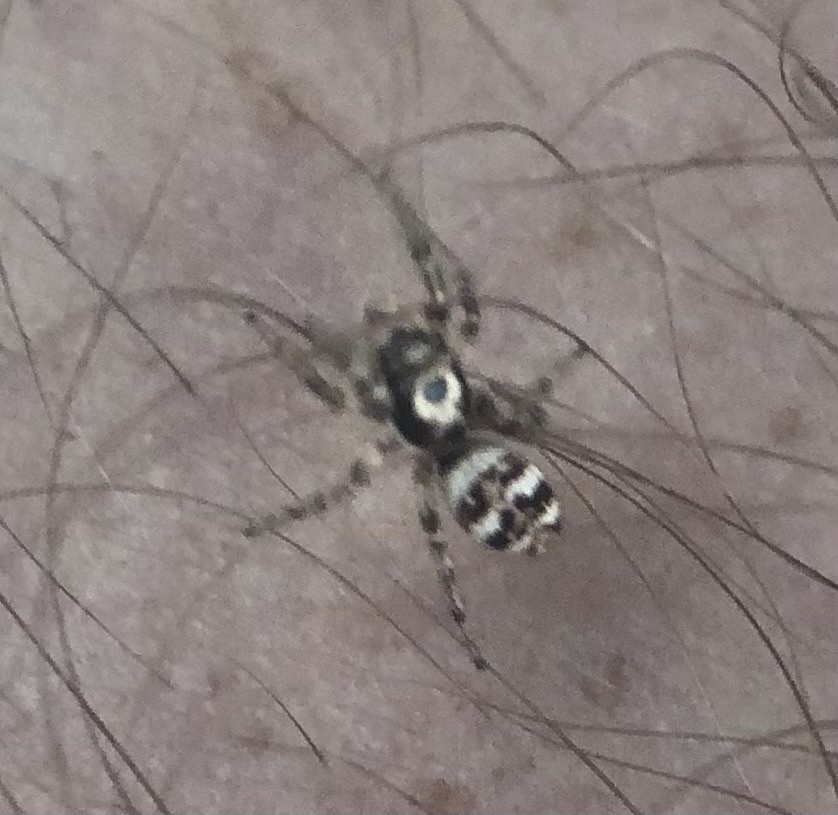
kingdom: Animalia
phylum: Arthropoda
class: Arachnida
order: Araneae
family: Salticidae
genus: Salticus
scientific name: Salticus scenicus
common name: Zebra jumper
